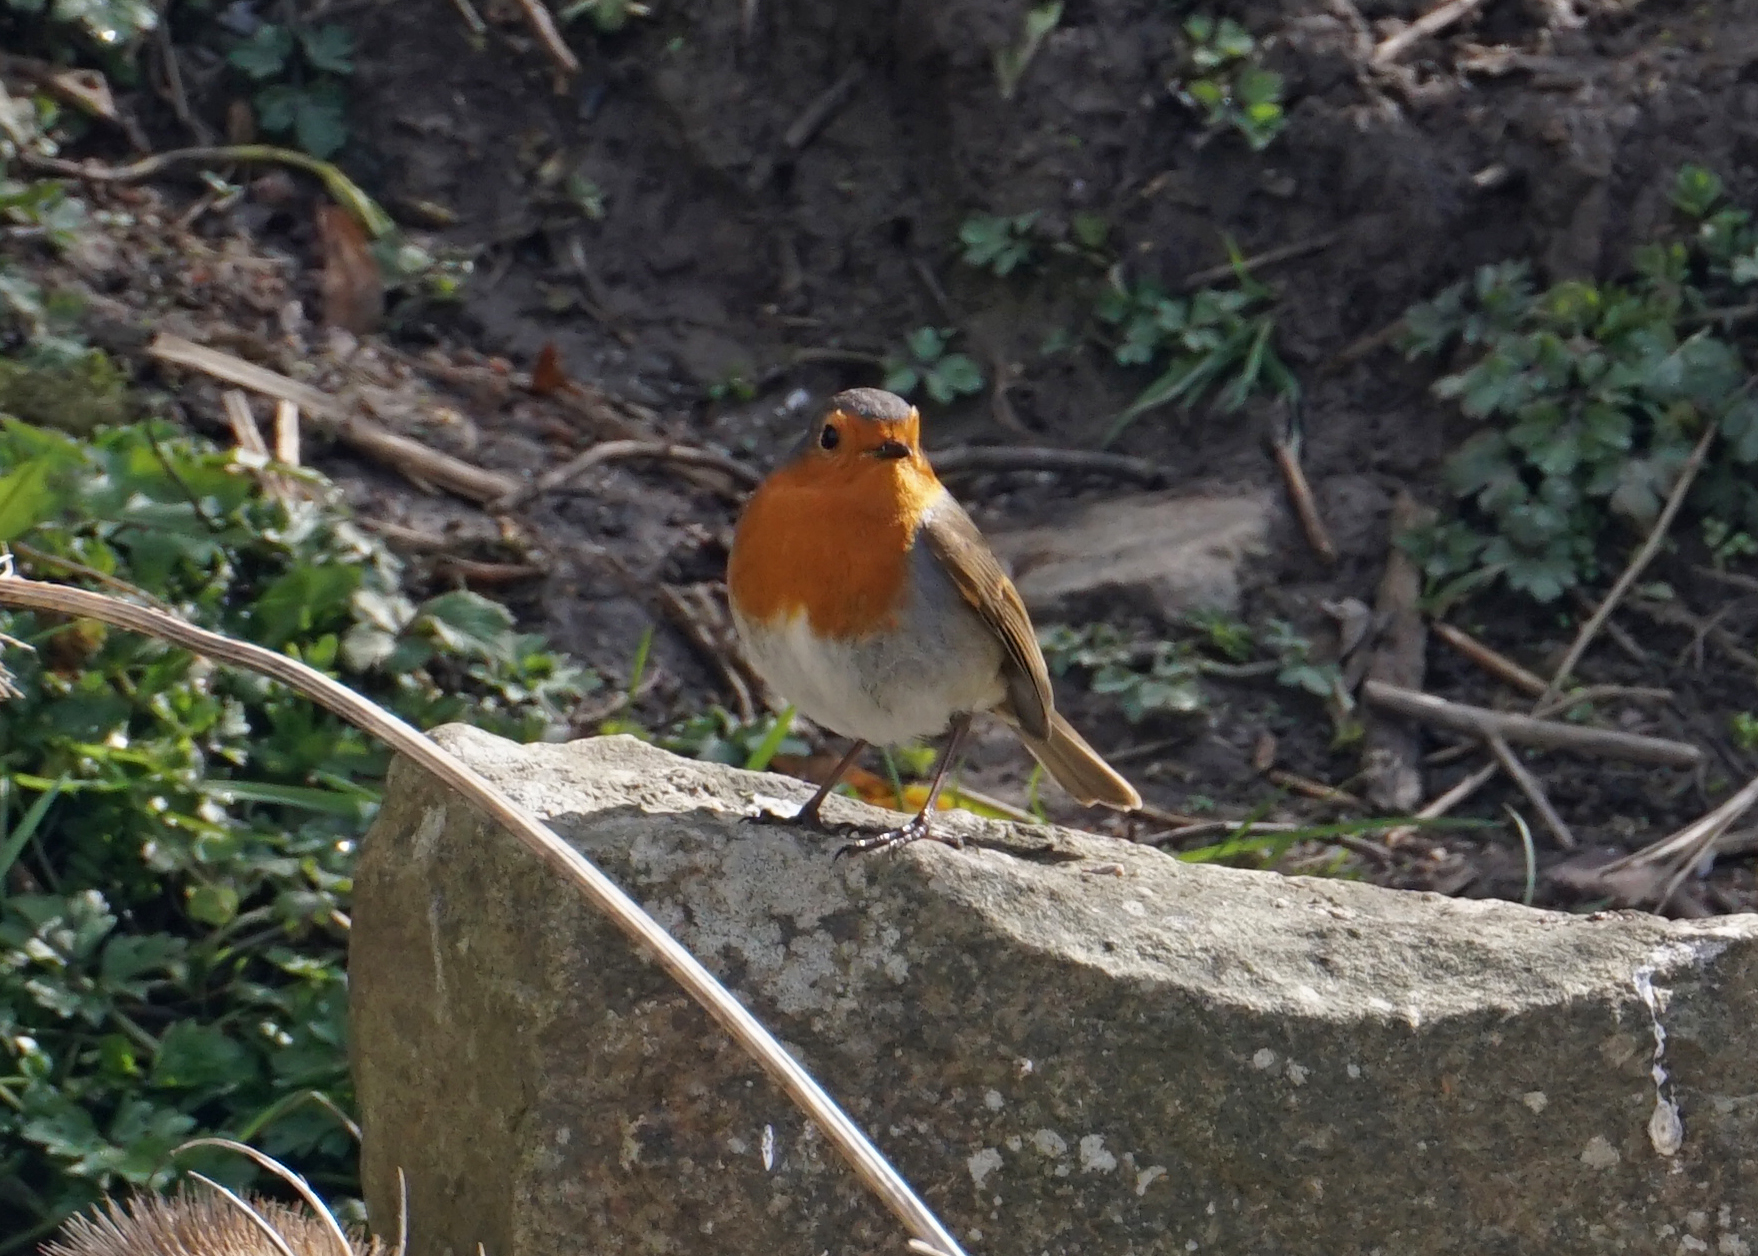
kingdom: Animalia
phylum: Chordata
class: Aves
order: Passeriformes
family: Muscicapidae
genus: Erithacus
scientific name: Erithacus rubecula
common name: European robin
